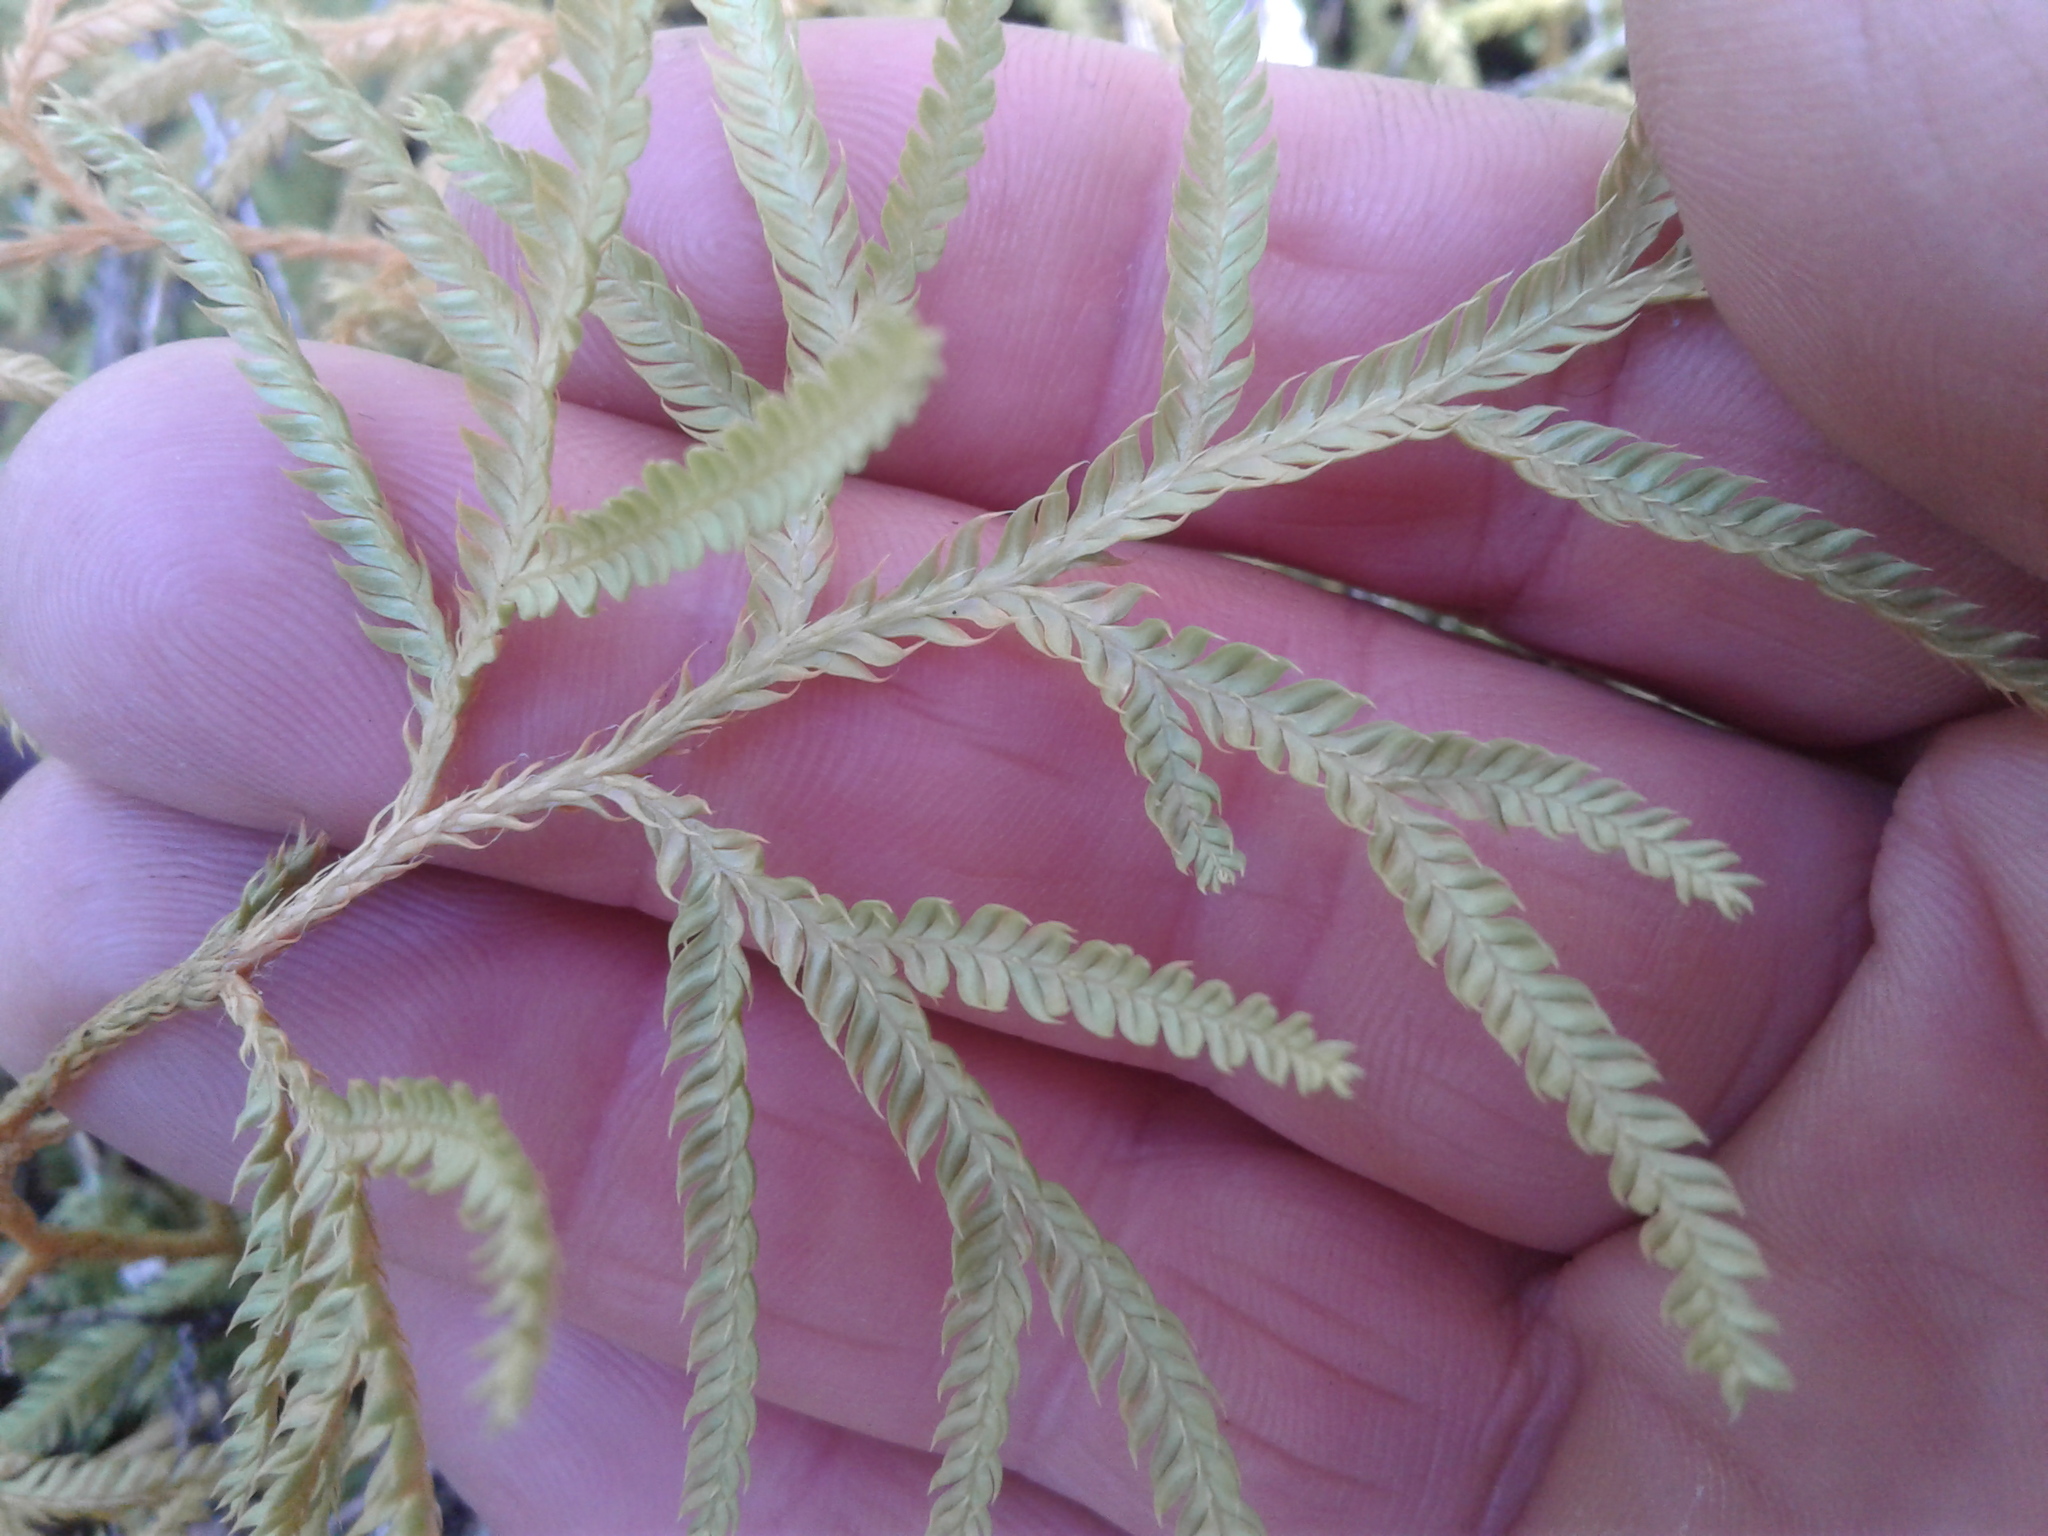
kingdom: Plantae
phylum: Tracheophyta
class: Lycopodiopsida
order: Lycopodiales
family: Lycopodiaceae
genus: Lycopodium
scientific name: Lycopodium volubile
